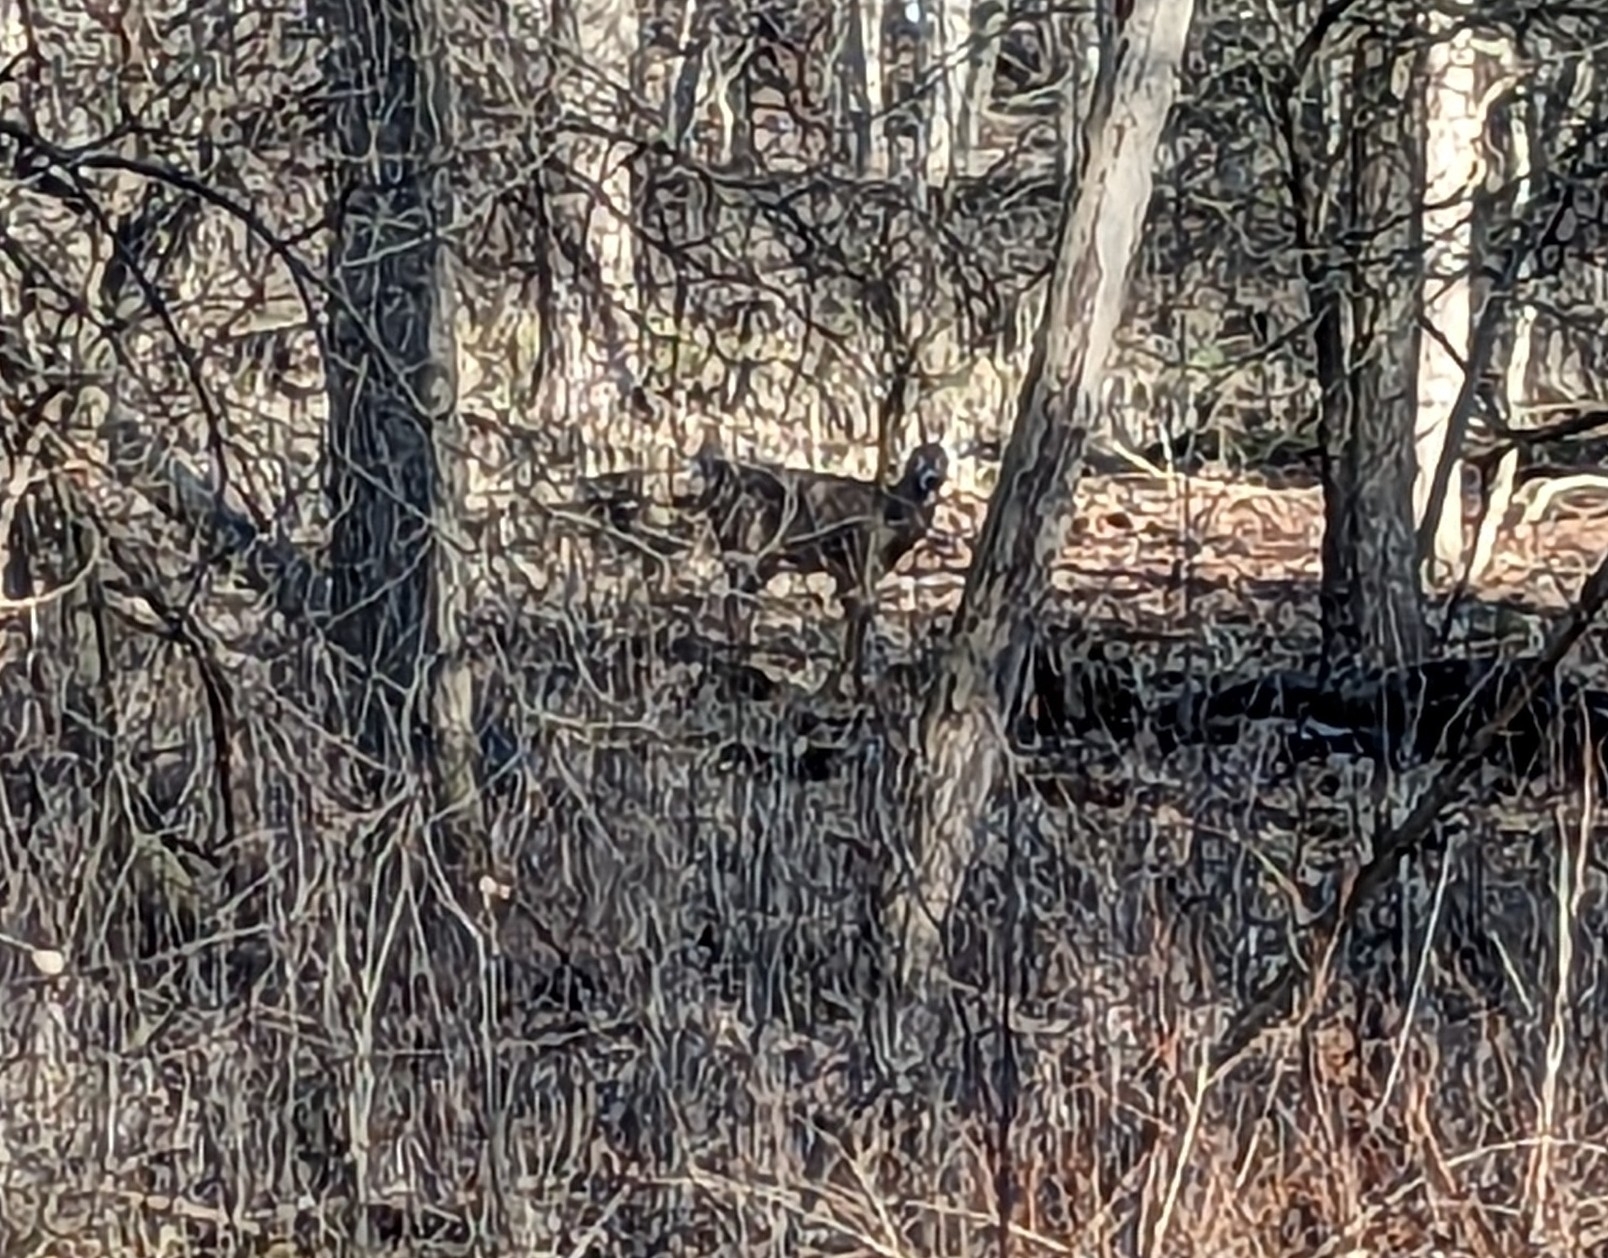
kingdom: Animalia
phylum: Chordata
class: Mammalia
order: Artiodactyla
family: Cervidae
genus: Odocoileus
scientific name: Odocoileus virginianus
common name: White-tailed deer
